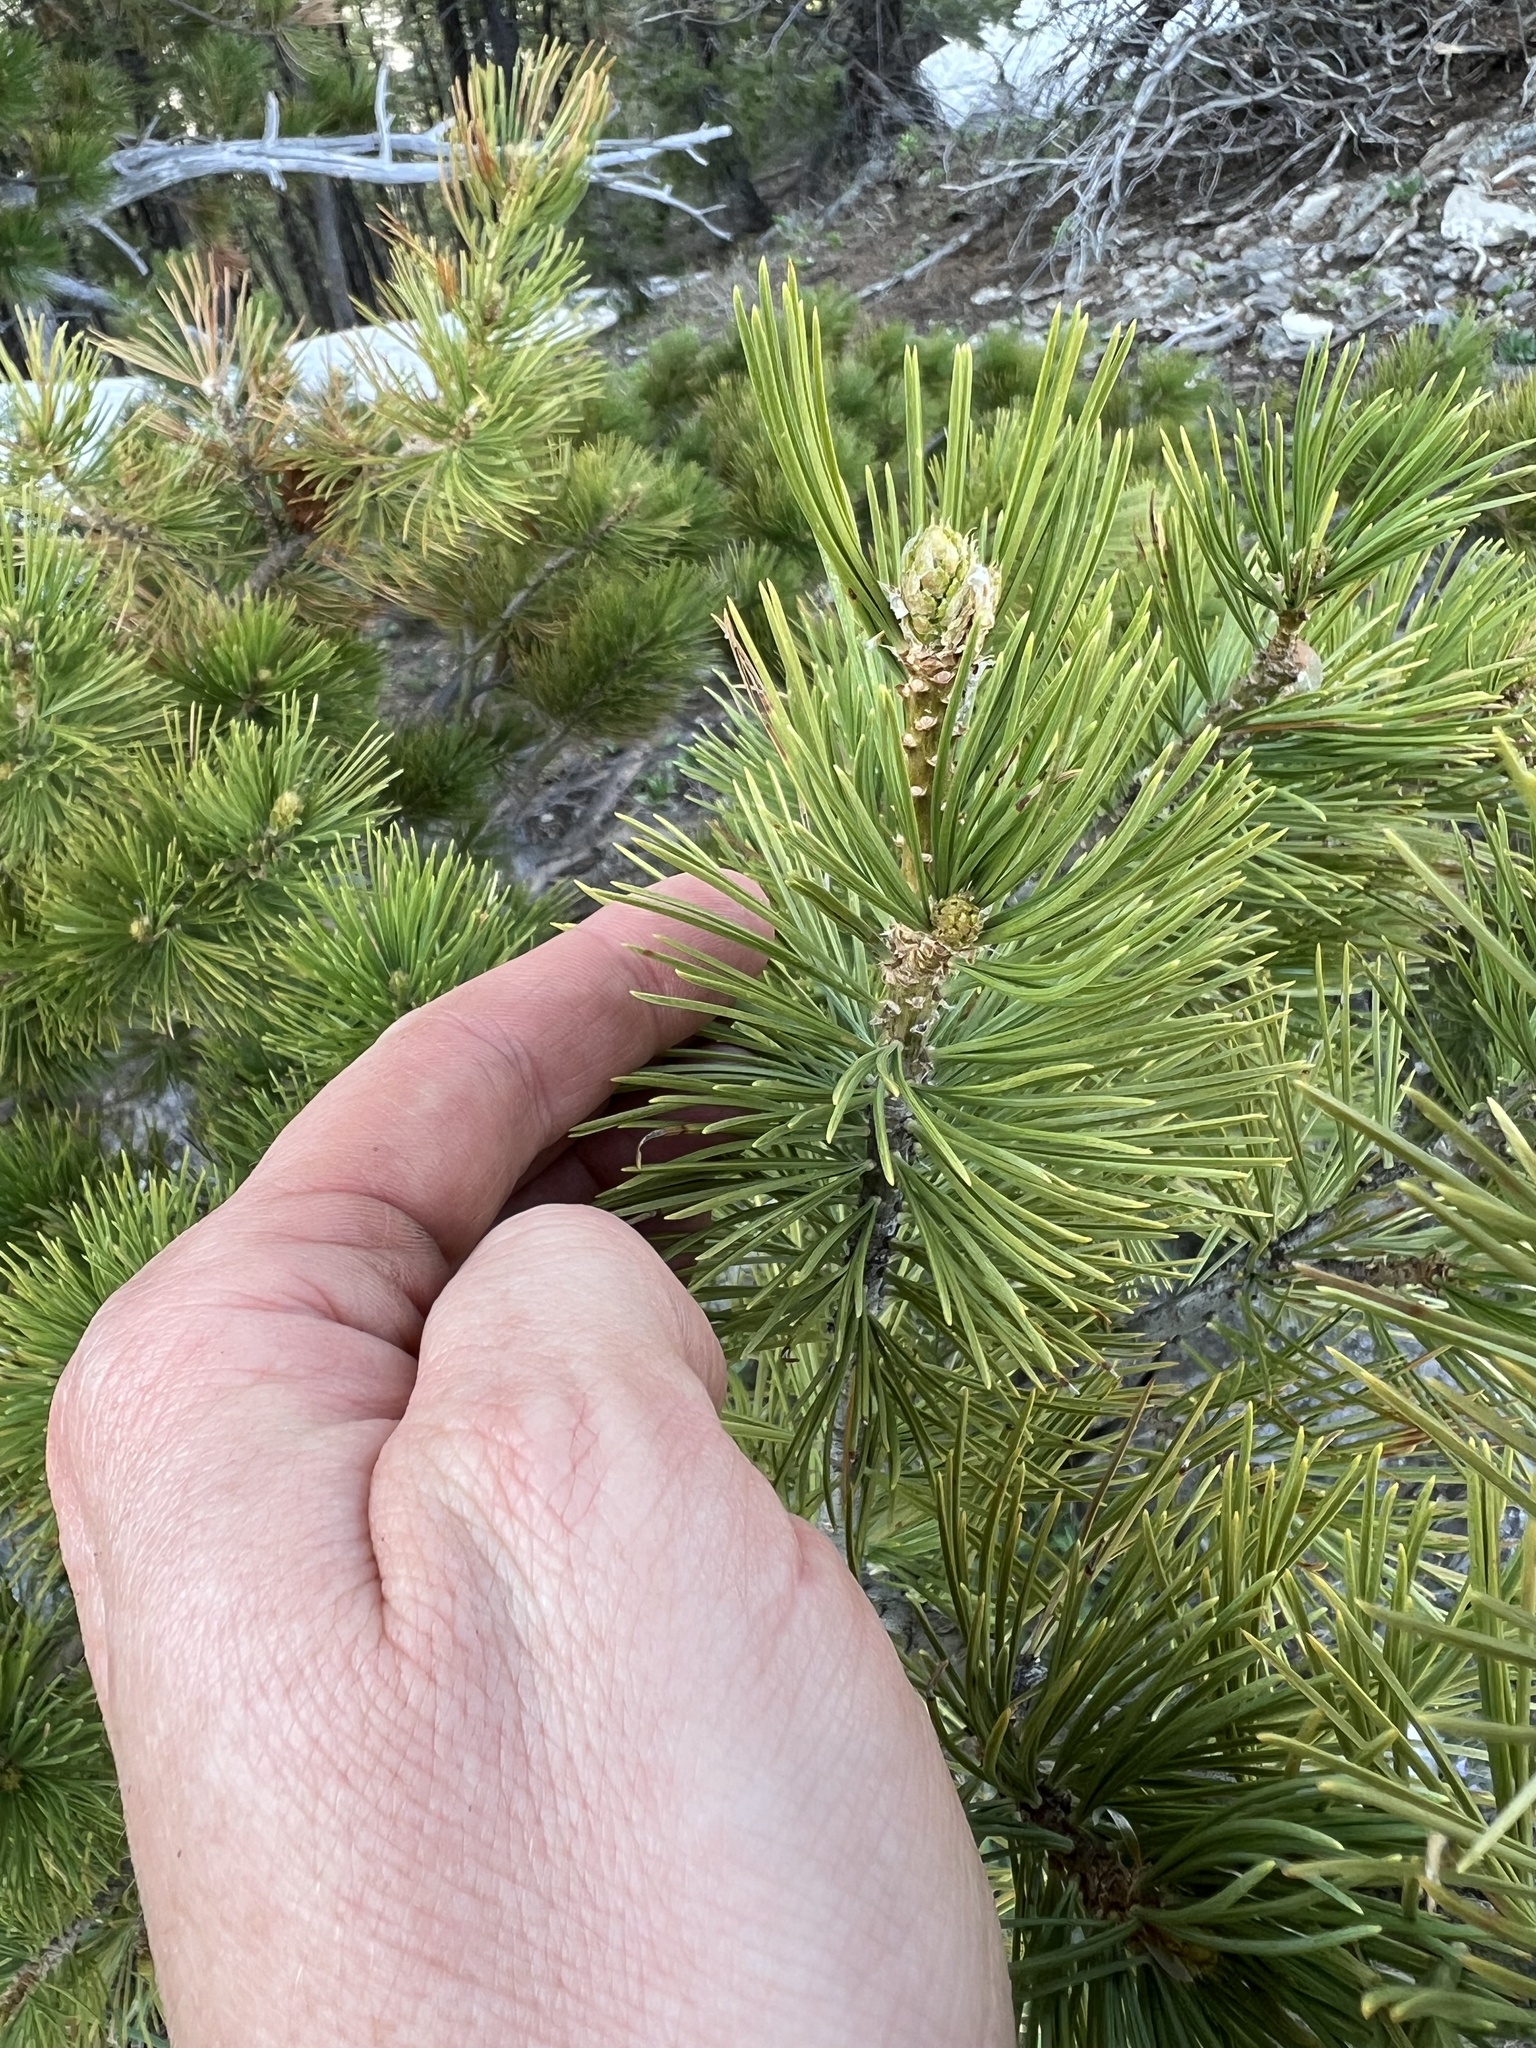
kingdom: Plantae
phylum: Tracheophyta
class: Pinopsida
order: Pinales
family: Pinaceae
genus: Pinus
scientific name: Pinus flexilis
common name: Limber pine
